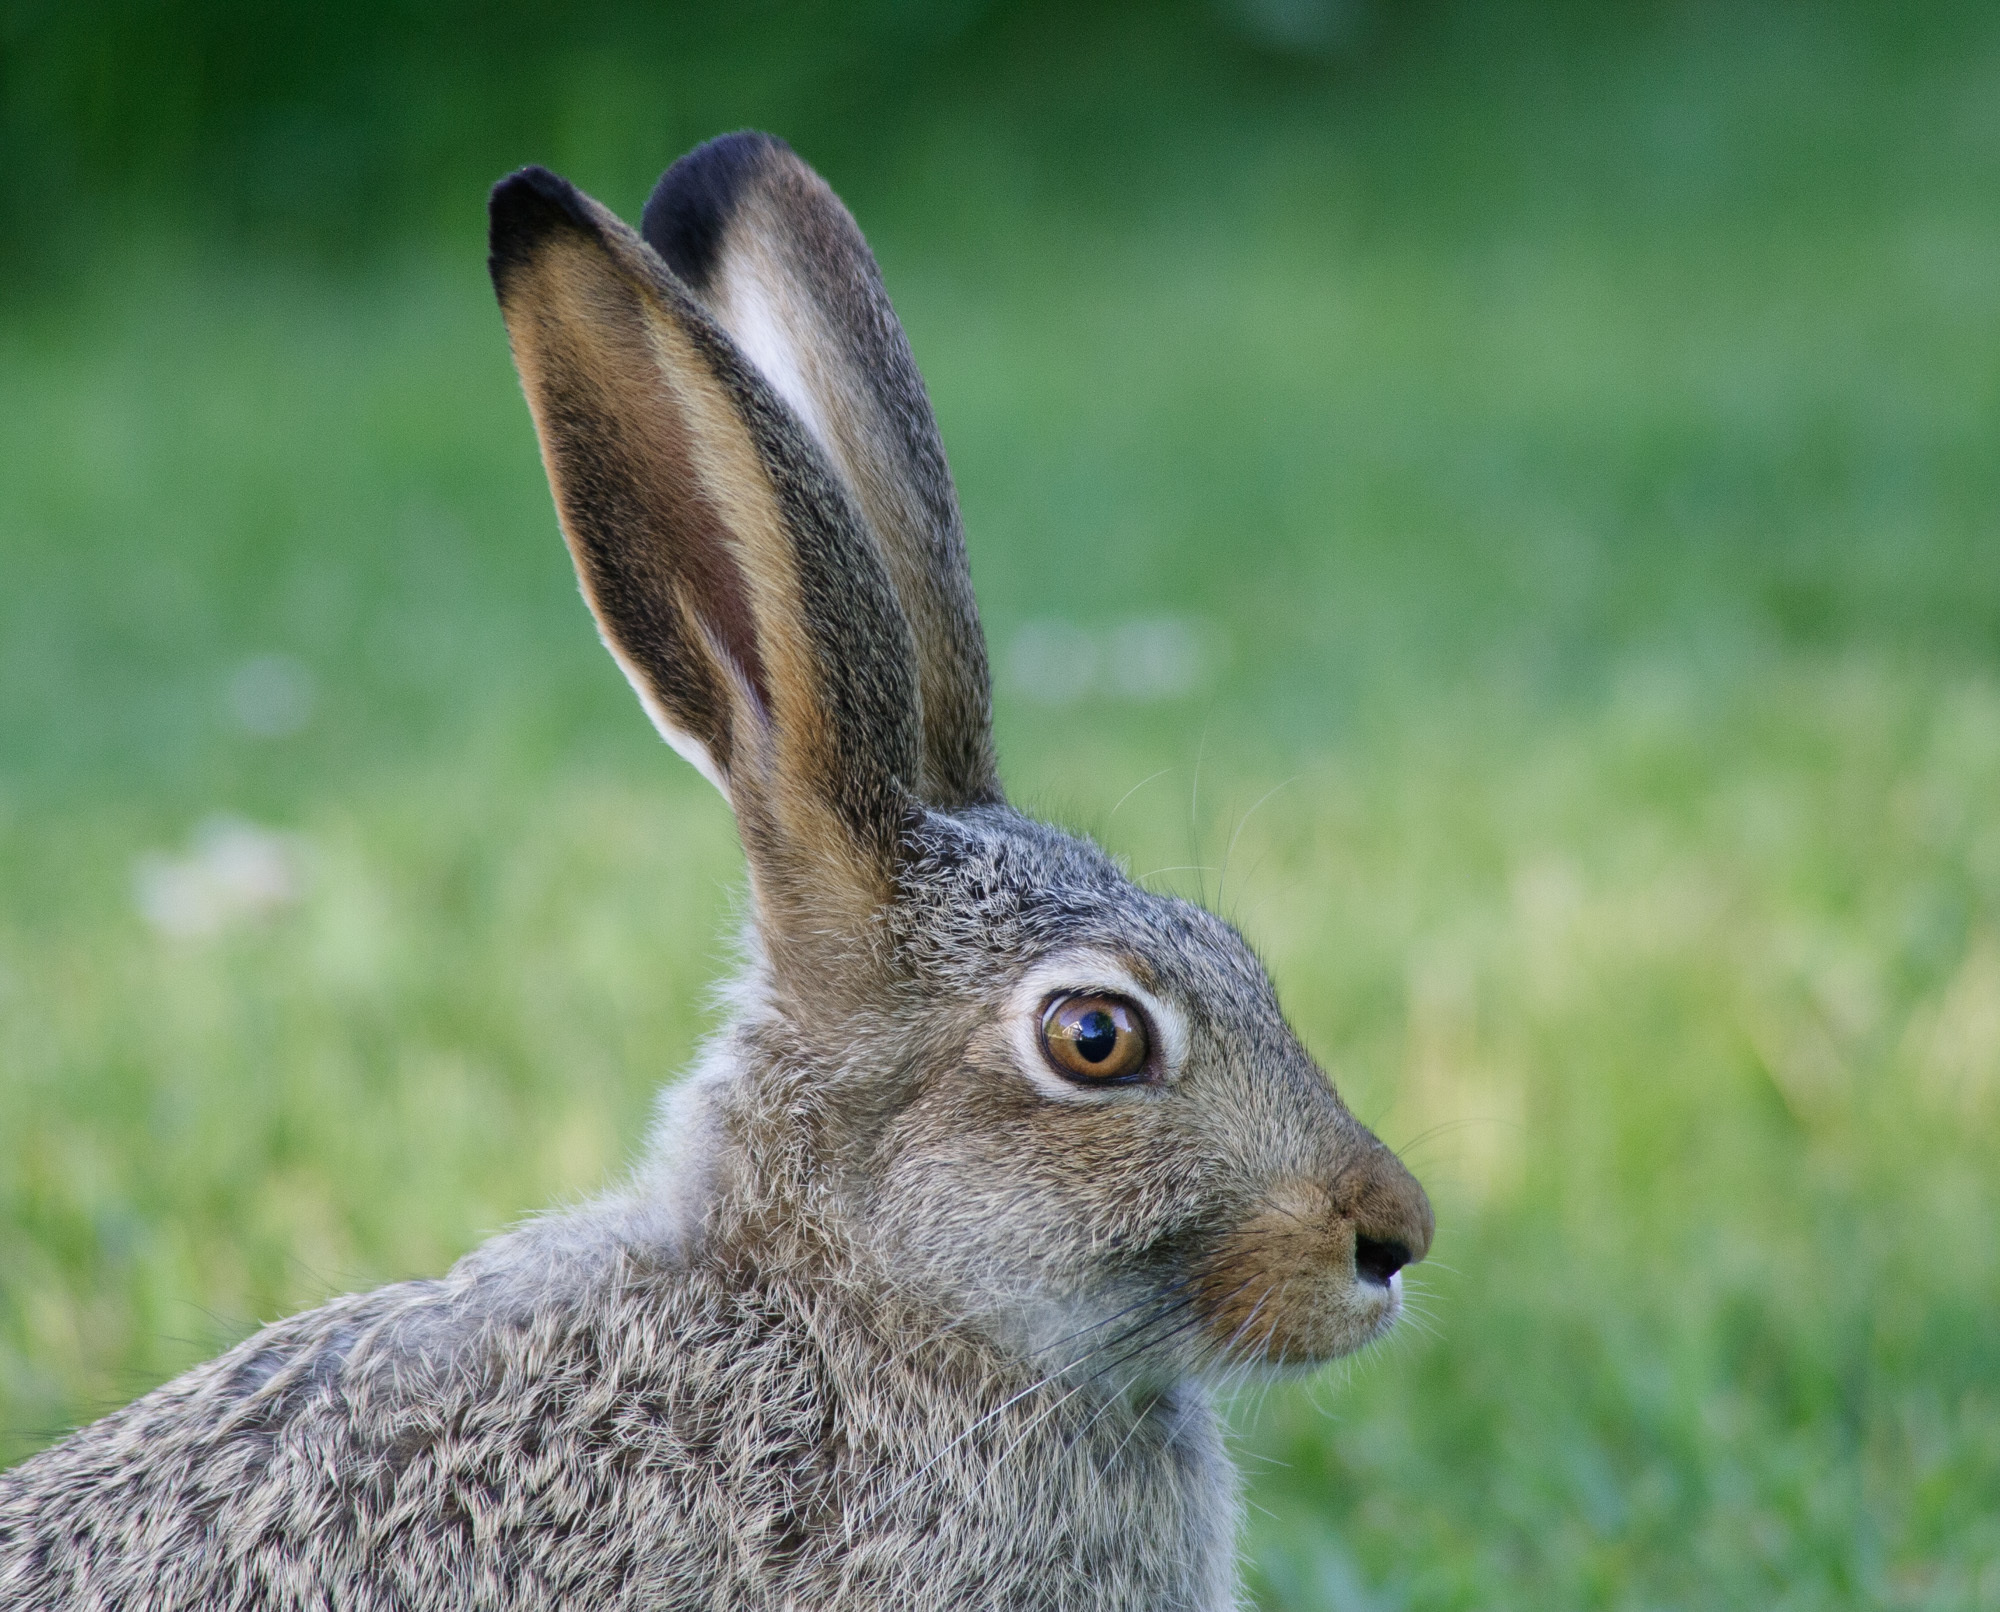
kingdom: Animalia
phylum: Chordata
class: Mammalia
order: Lagomorpha
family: Leporidae
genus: Lepus
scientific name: Lepus townsendii
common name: White-tailed jackrabbit
